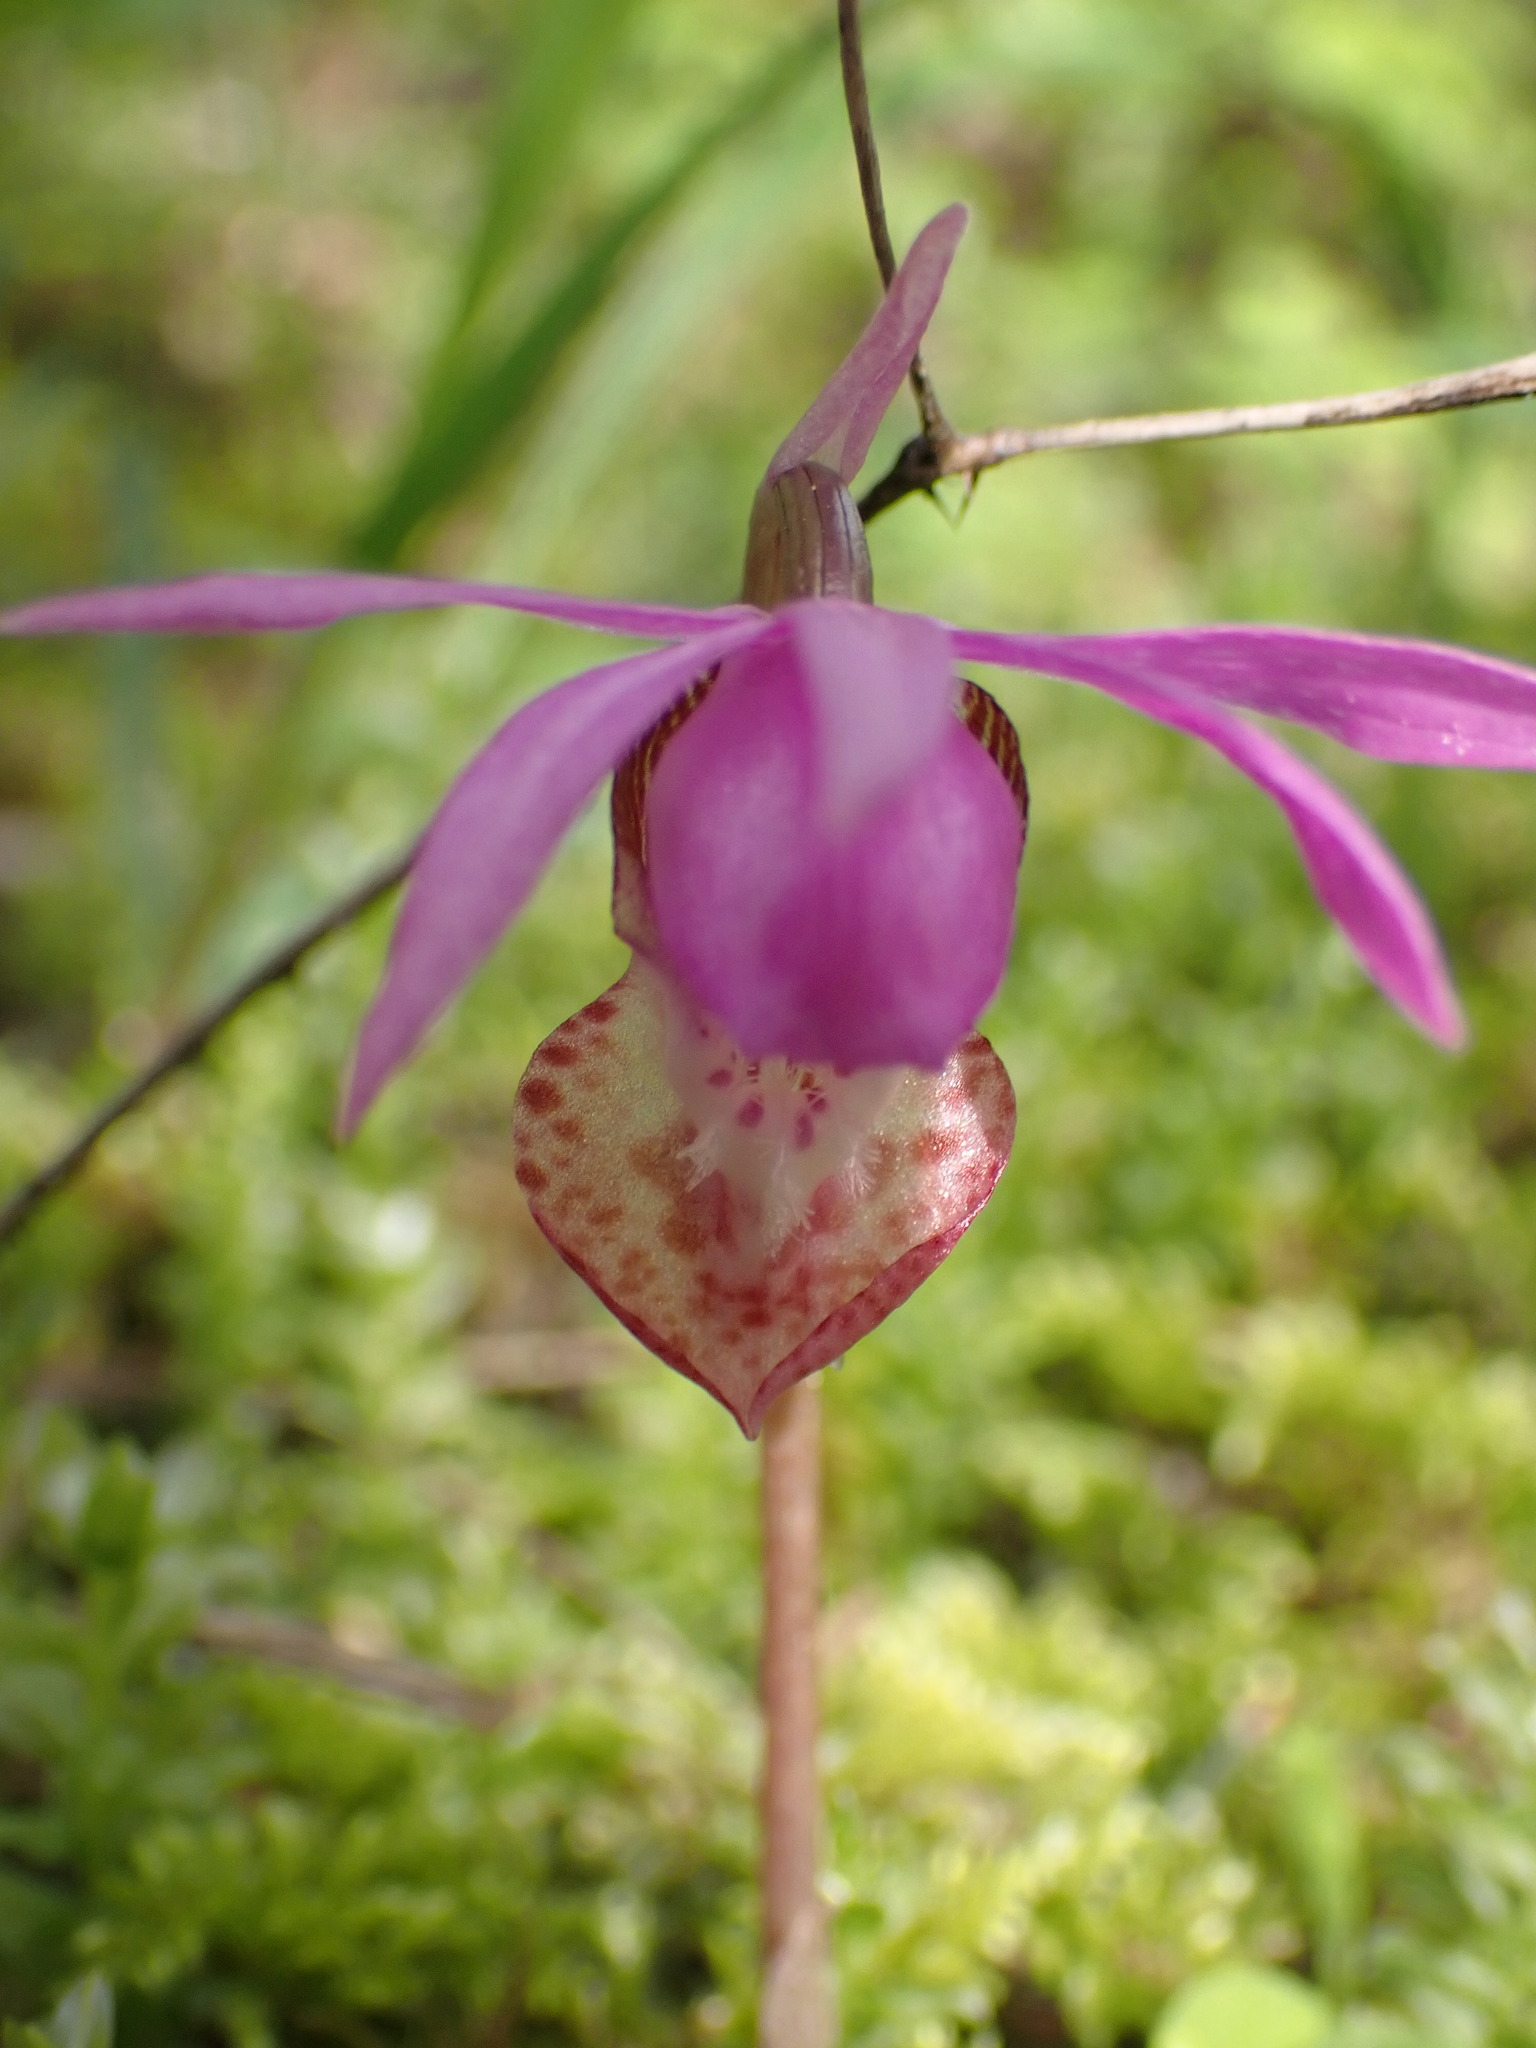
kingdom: Plantae
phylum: Tracheophyta
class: Liliopsida
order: Asparagales
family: Orchidaceae
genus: Calypso
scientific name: Calypso bulbosa
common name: Calypso
